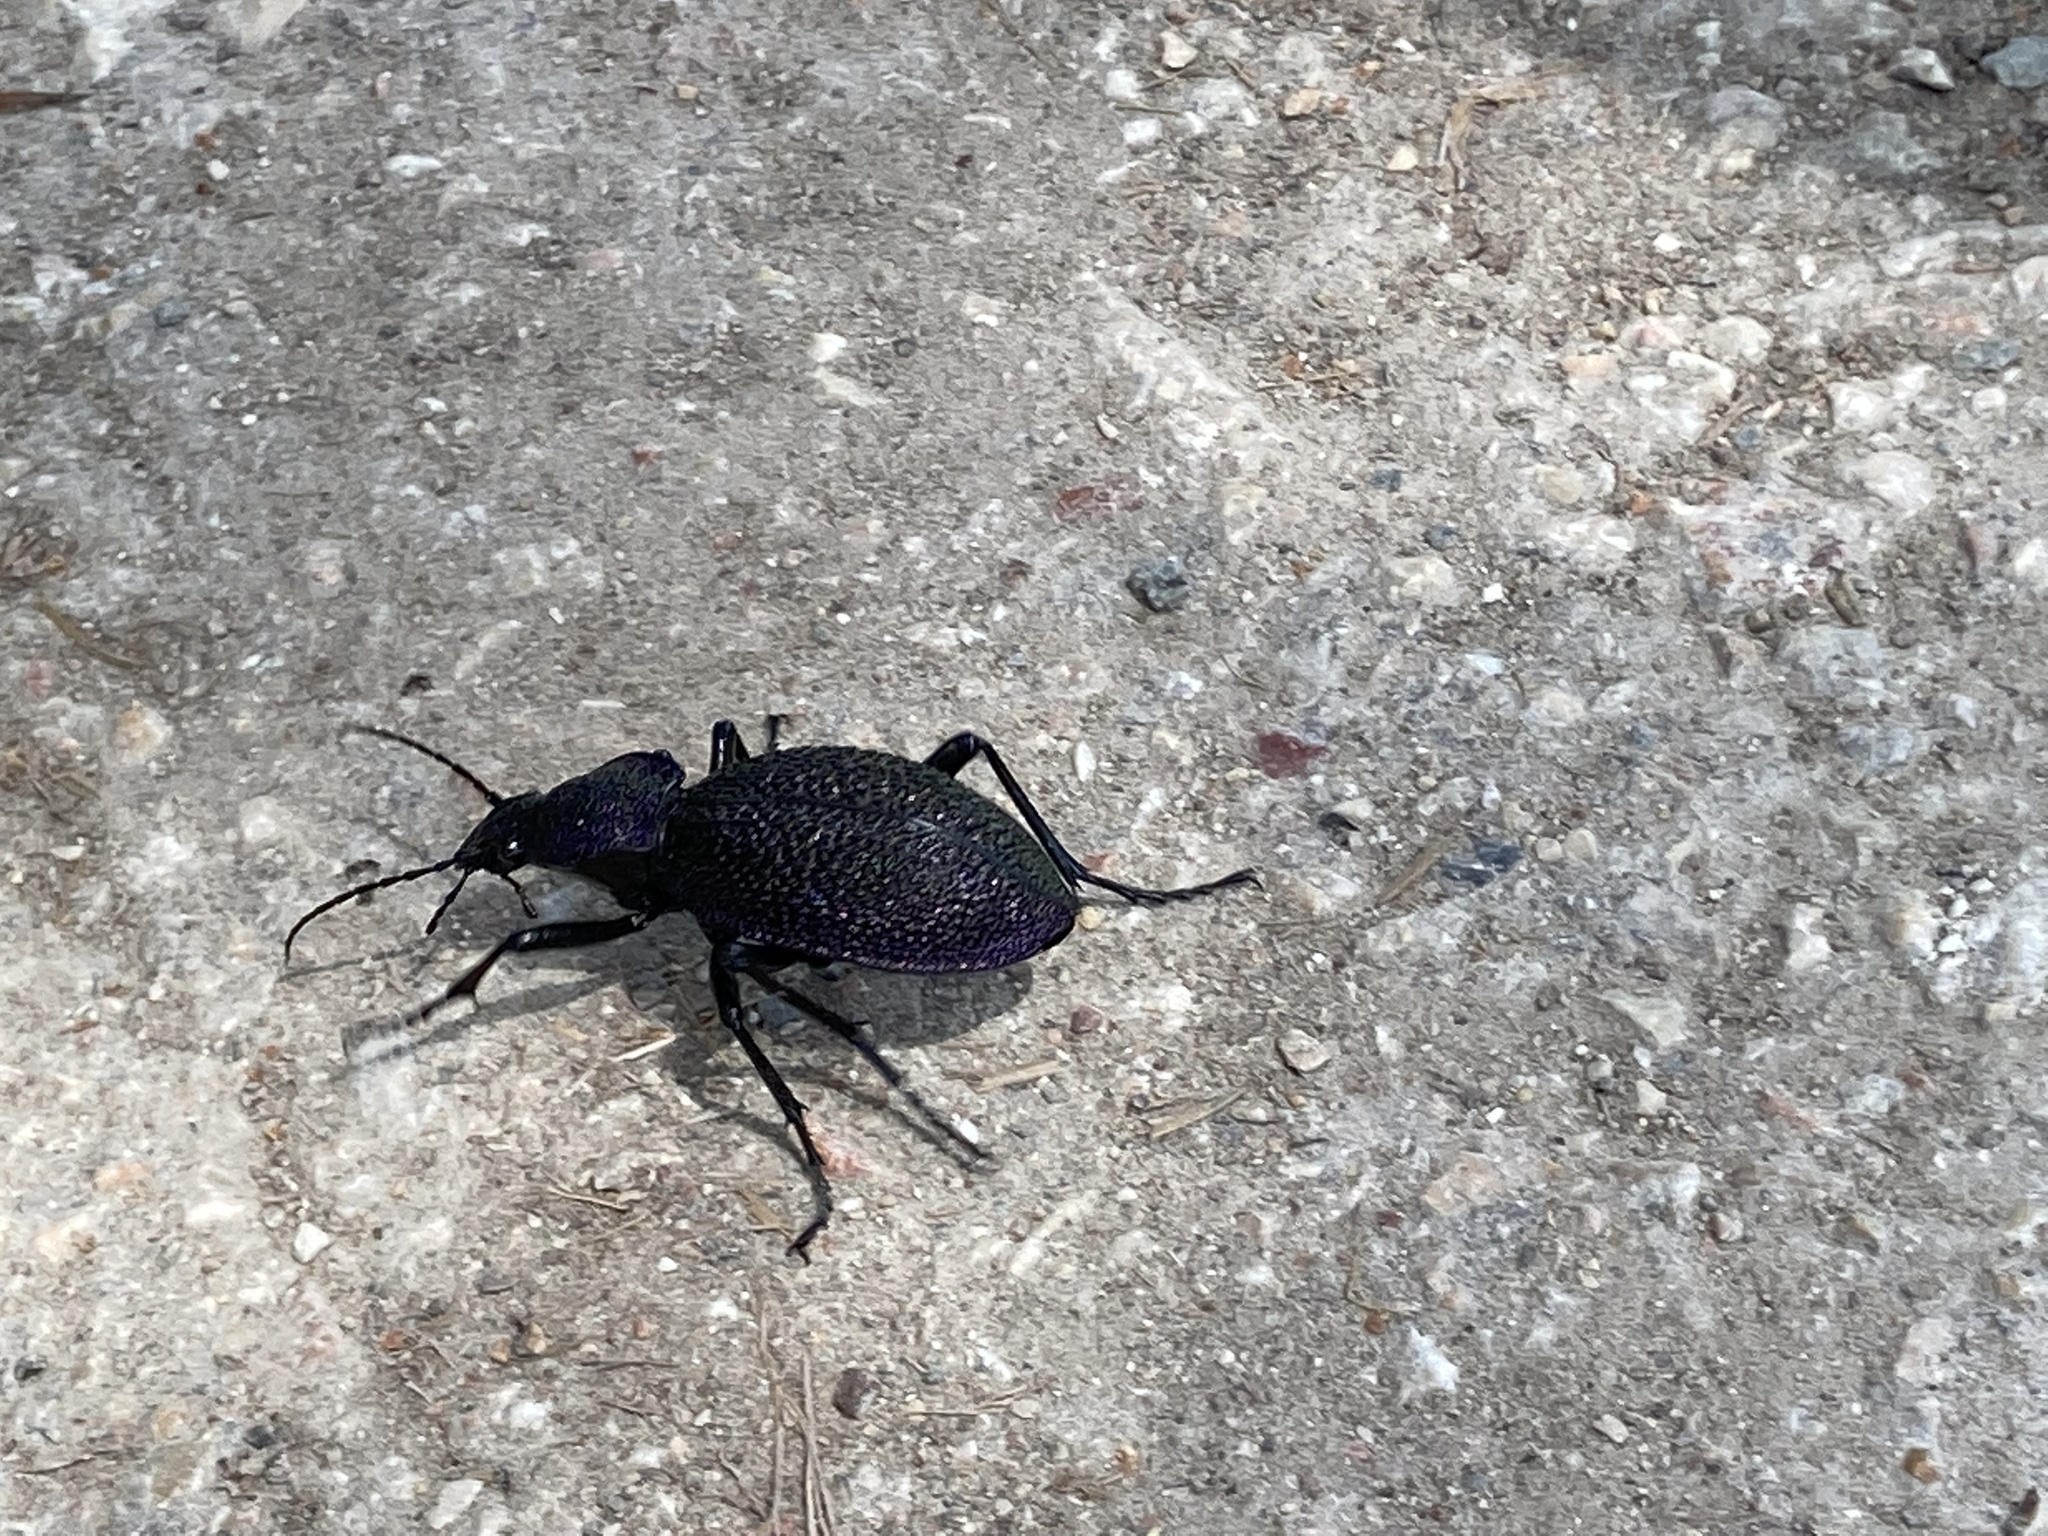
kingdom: Animalia
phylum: Arthropoda
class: Insecta
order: Coleoptera
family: Carabidae
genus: Carabus
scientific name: Carabus scabrosus
